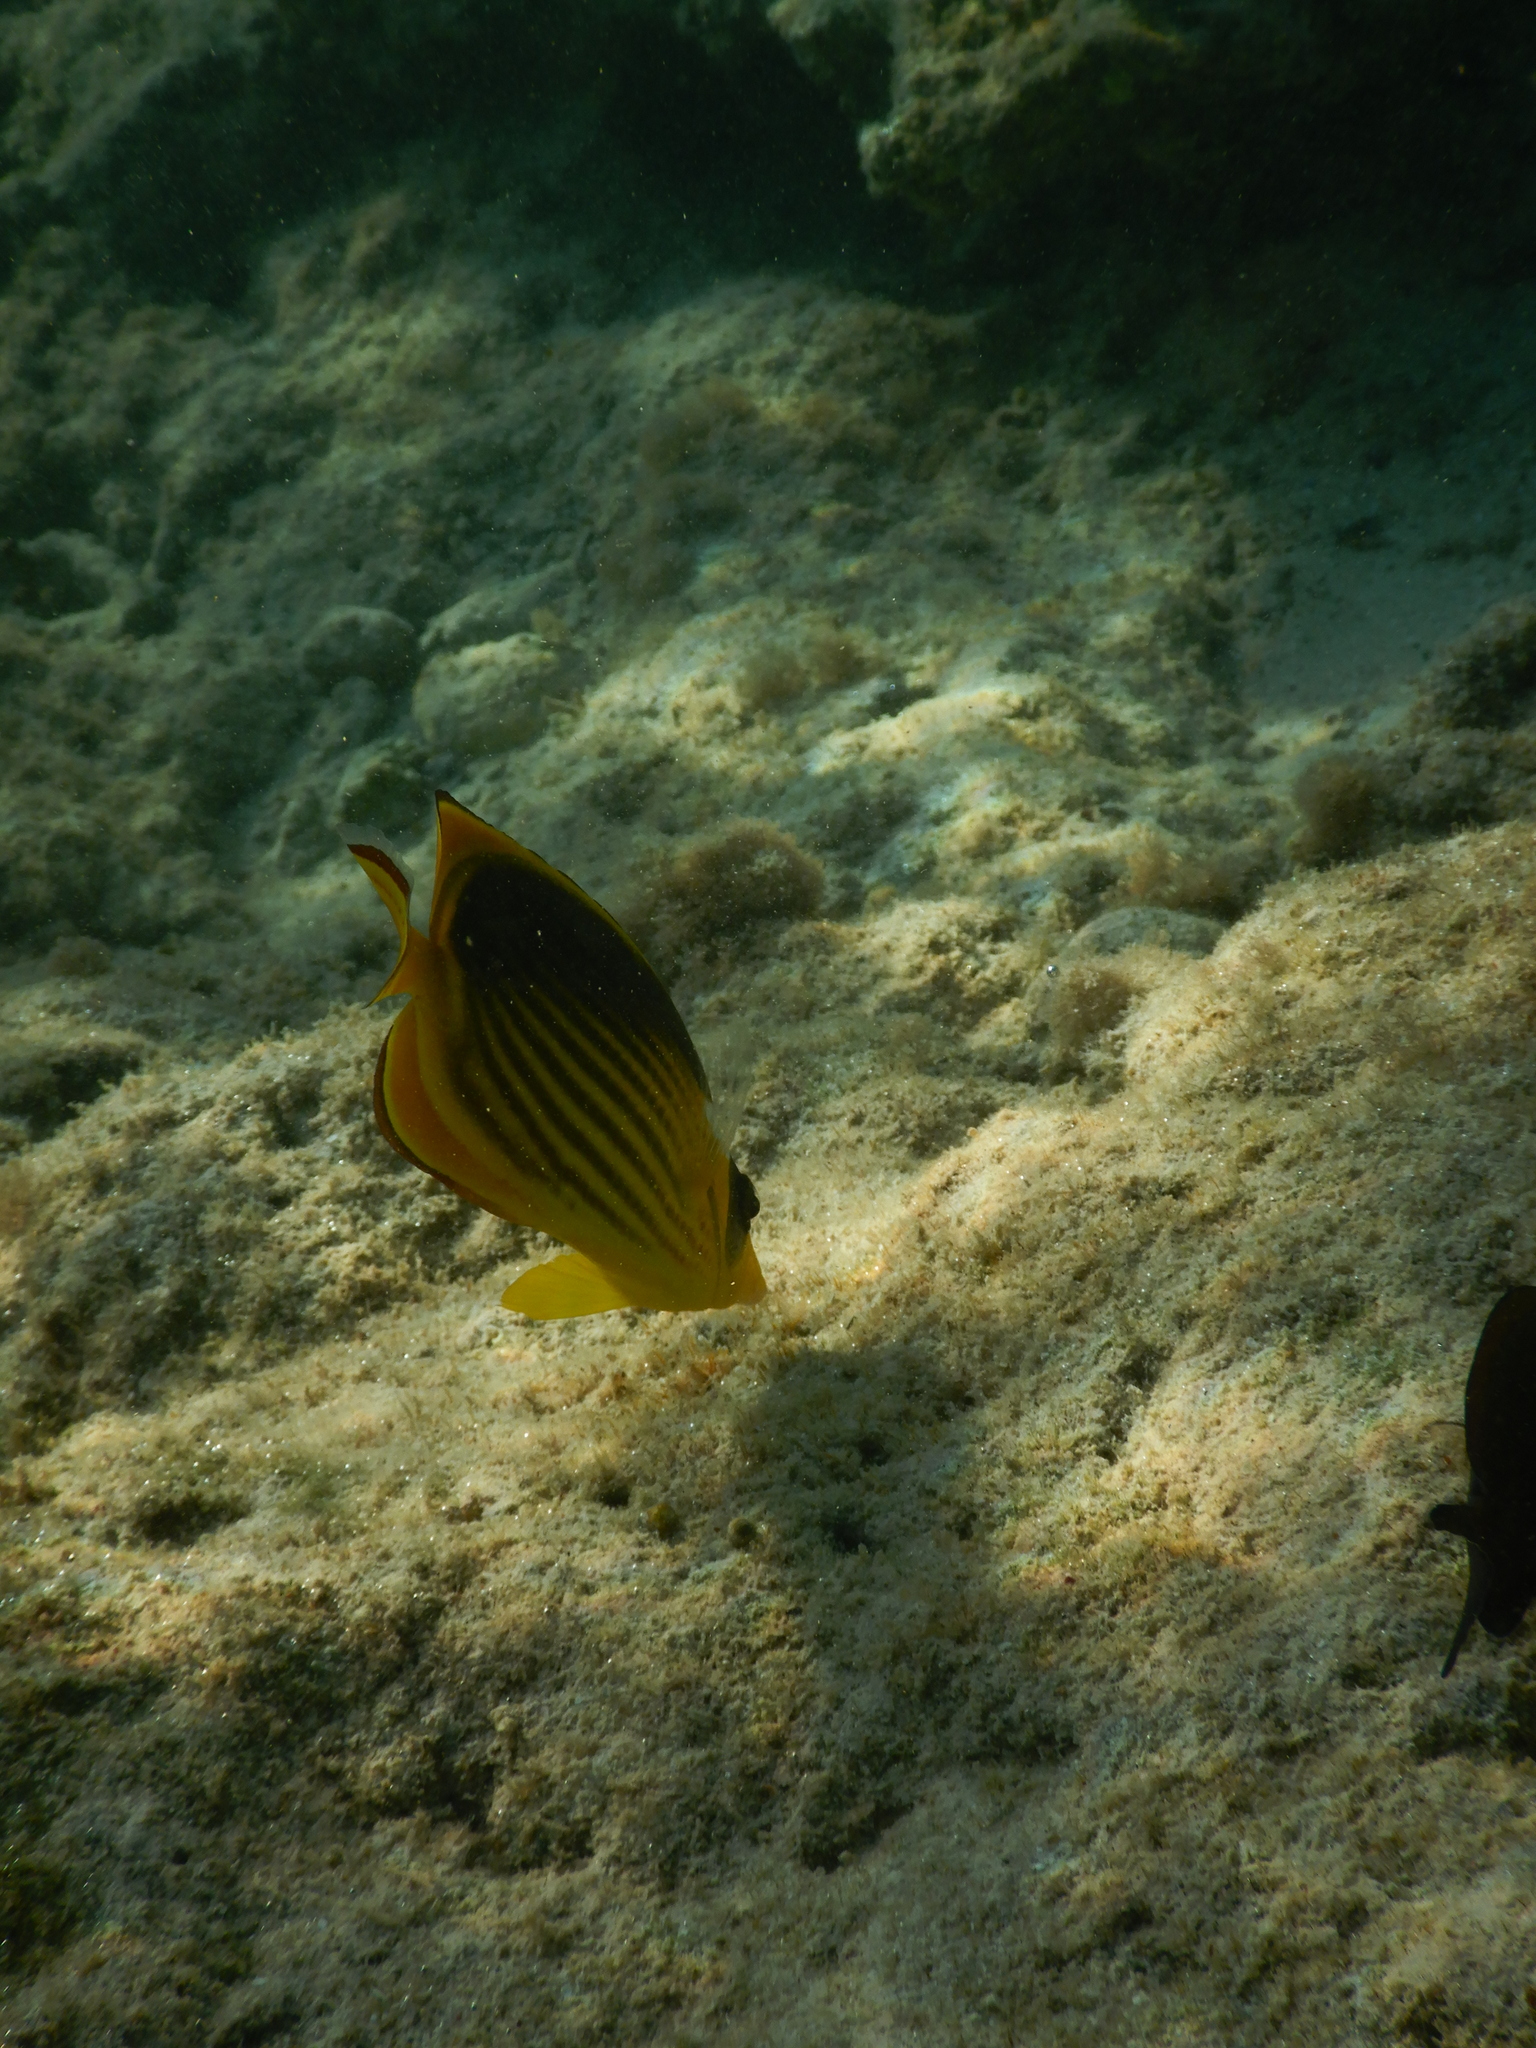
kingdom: Animalia
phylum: Chordata
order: Perciformes
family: Chaetodontidae
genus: Chaetodon
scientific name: Chaetodon fasciatus
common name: Diagonal butterflyfish
